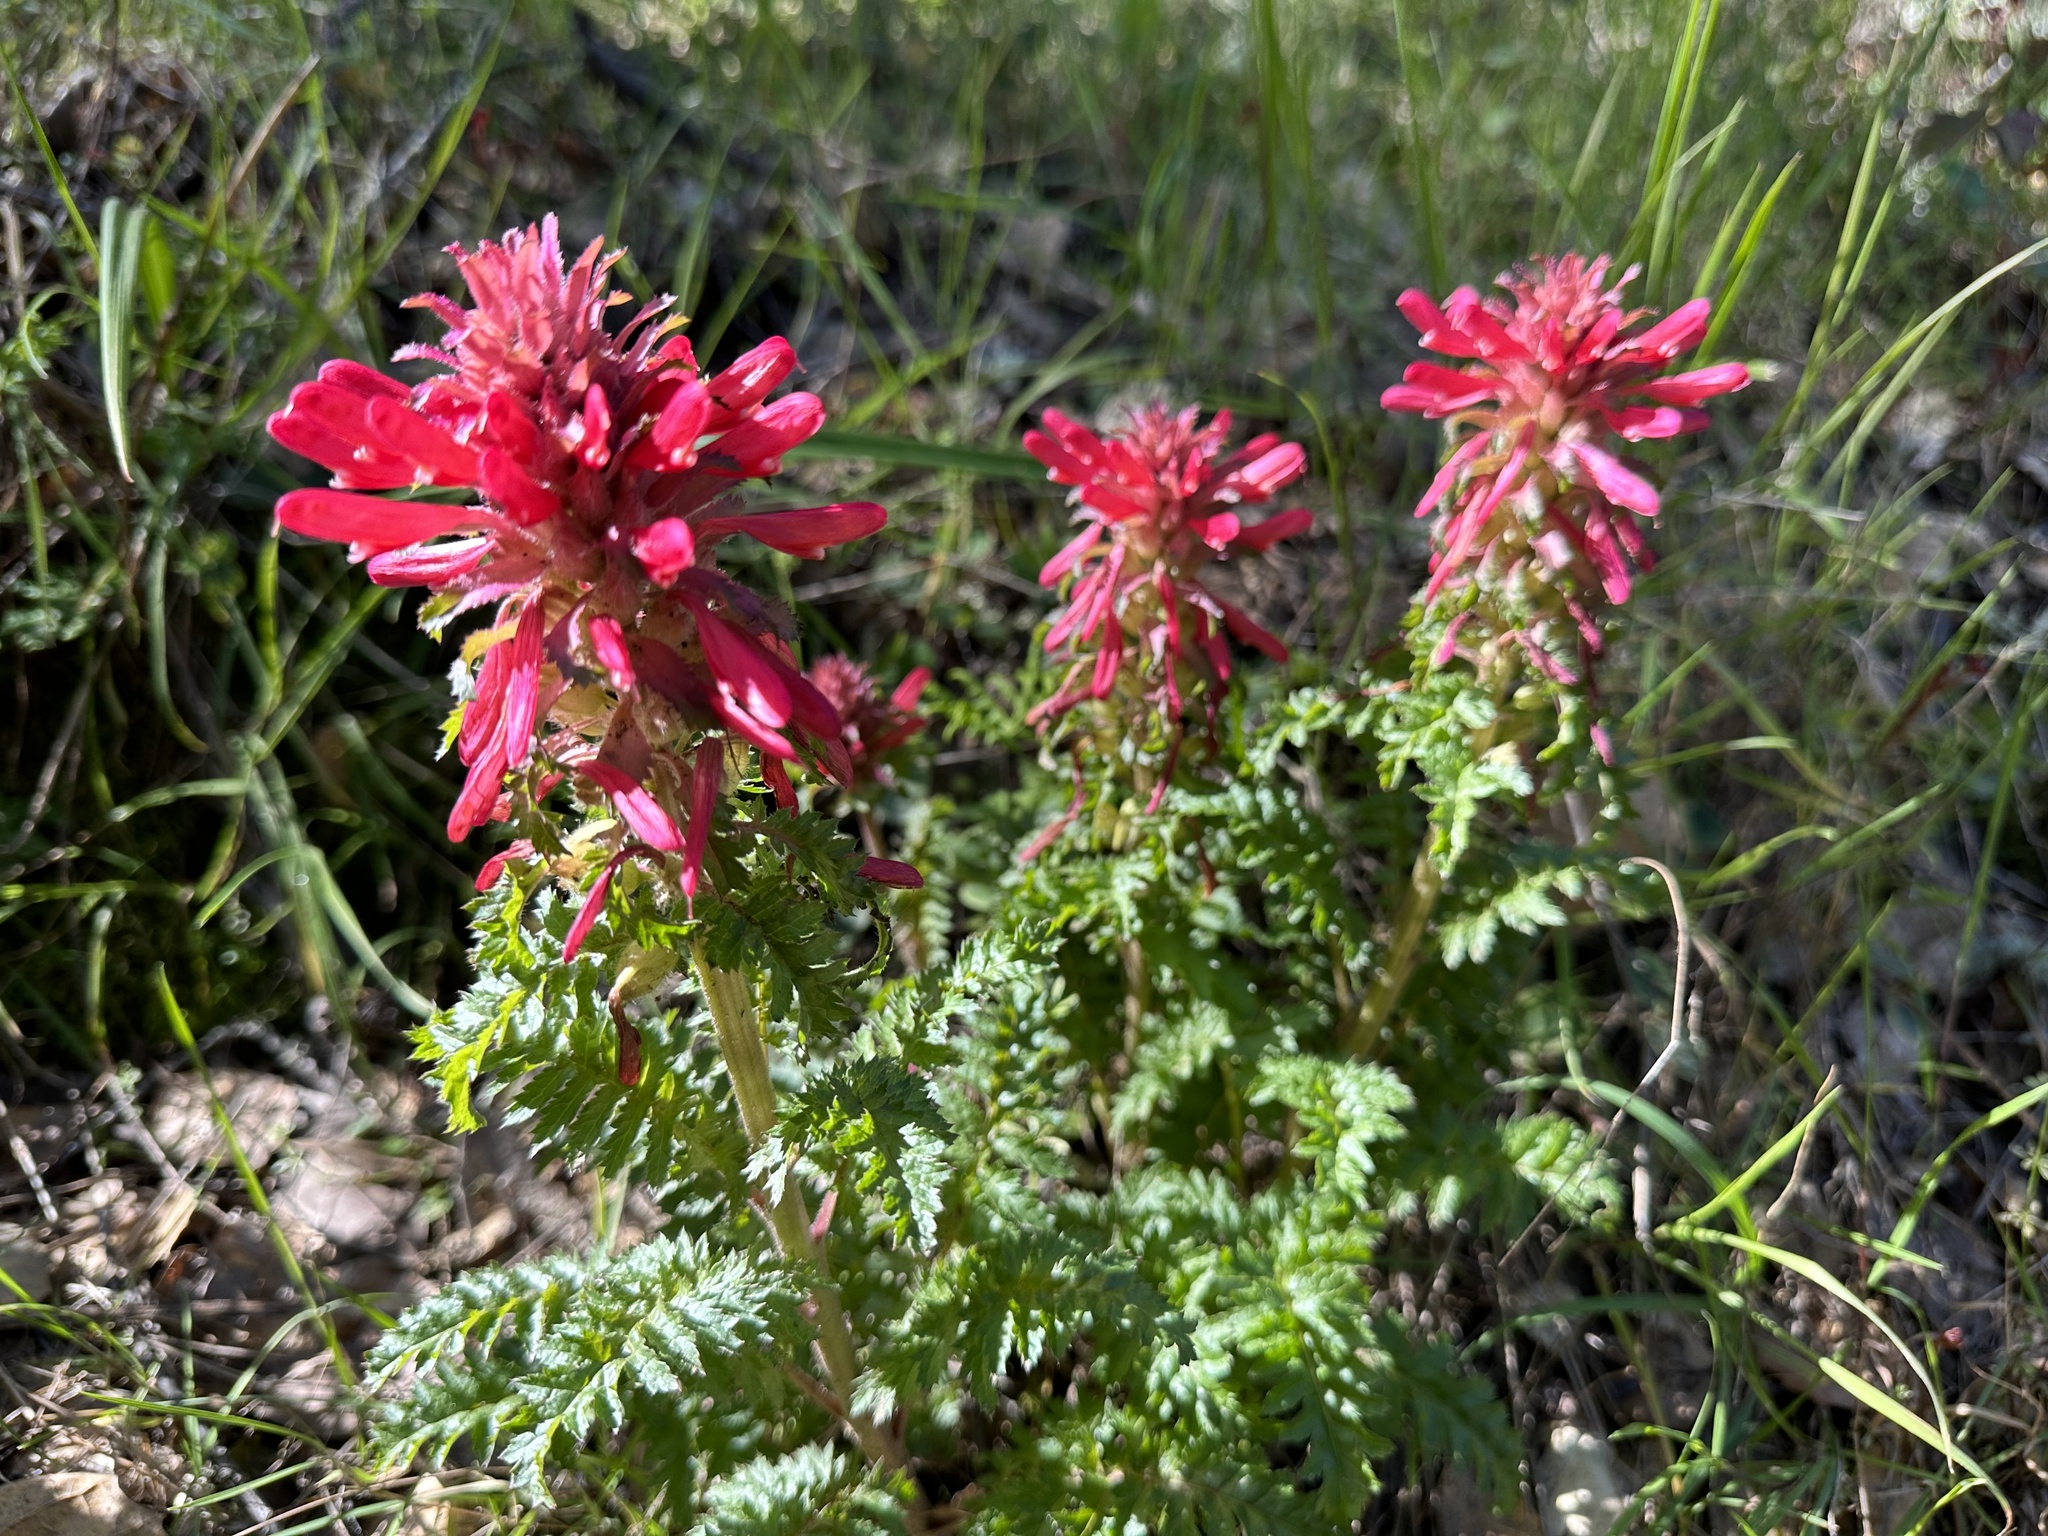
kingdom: Plantae
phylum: Tracheophyta
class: Magnoliopsida
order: Lamiales
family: Orobanchaceae
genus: Pedicularis
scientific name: Pedicularis densiflora
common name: Indian warrior
